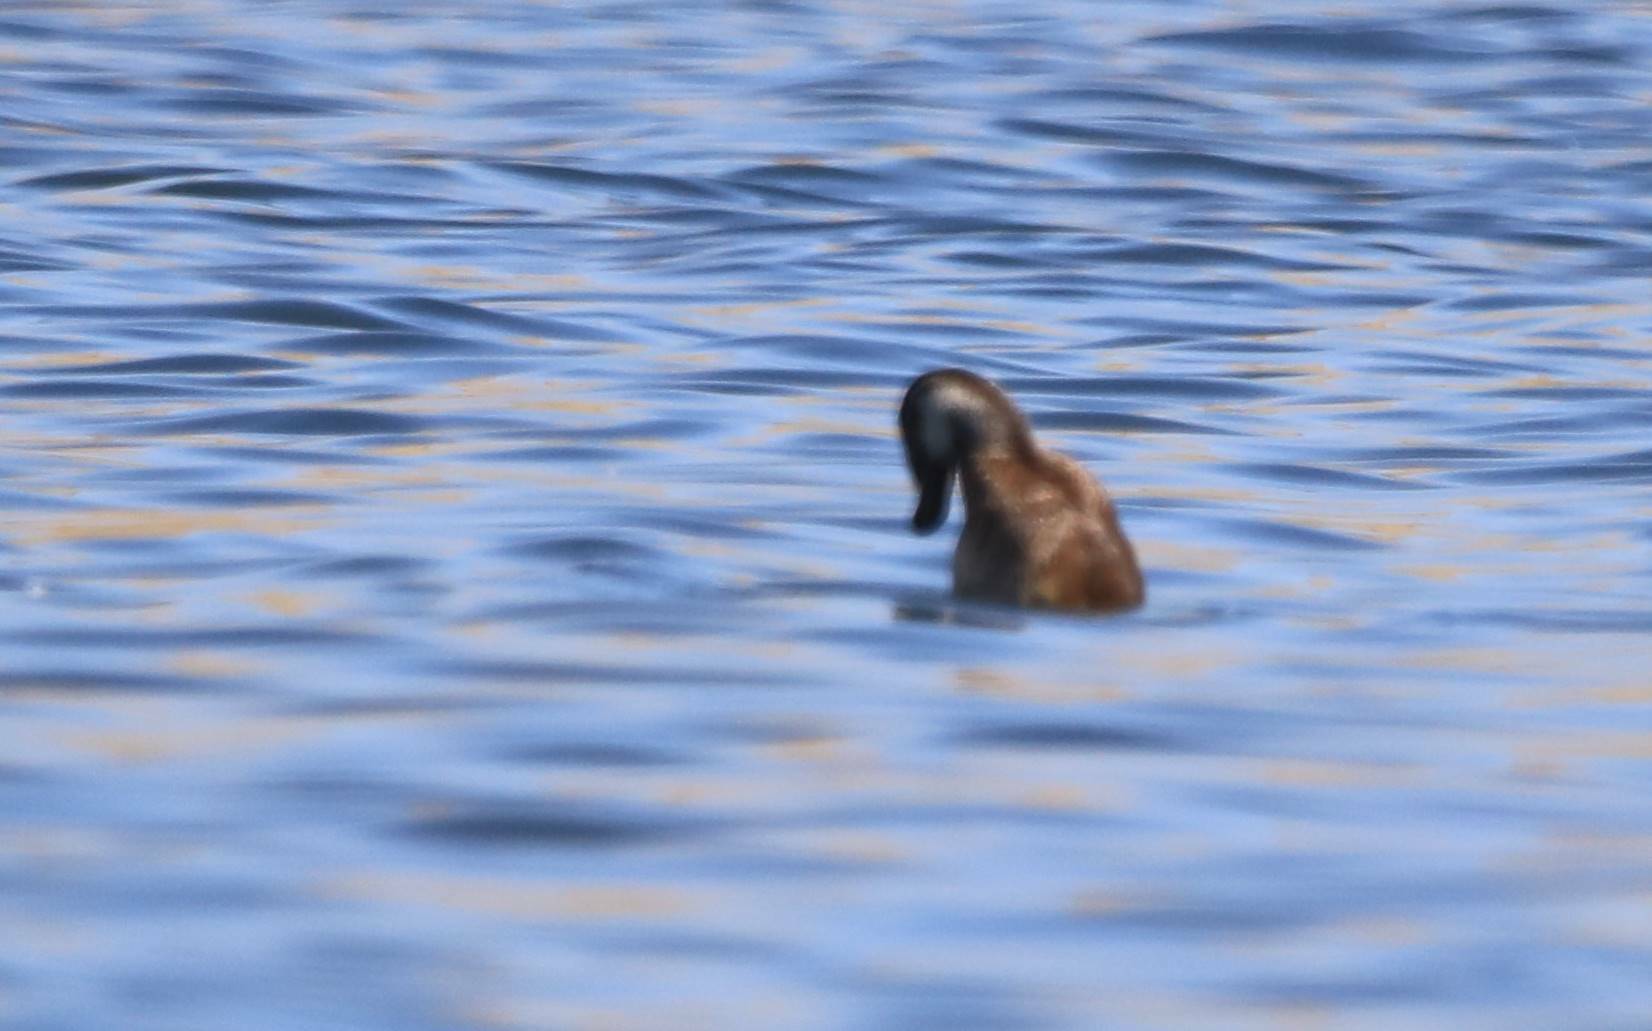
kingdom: Animalia
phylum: Chordata
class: Aves
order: Anseriformes
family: Anatidae
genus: Oxyura
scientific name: Oxyura leucocephala
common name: White-headed duck
